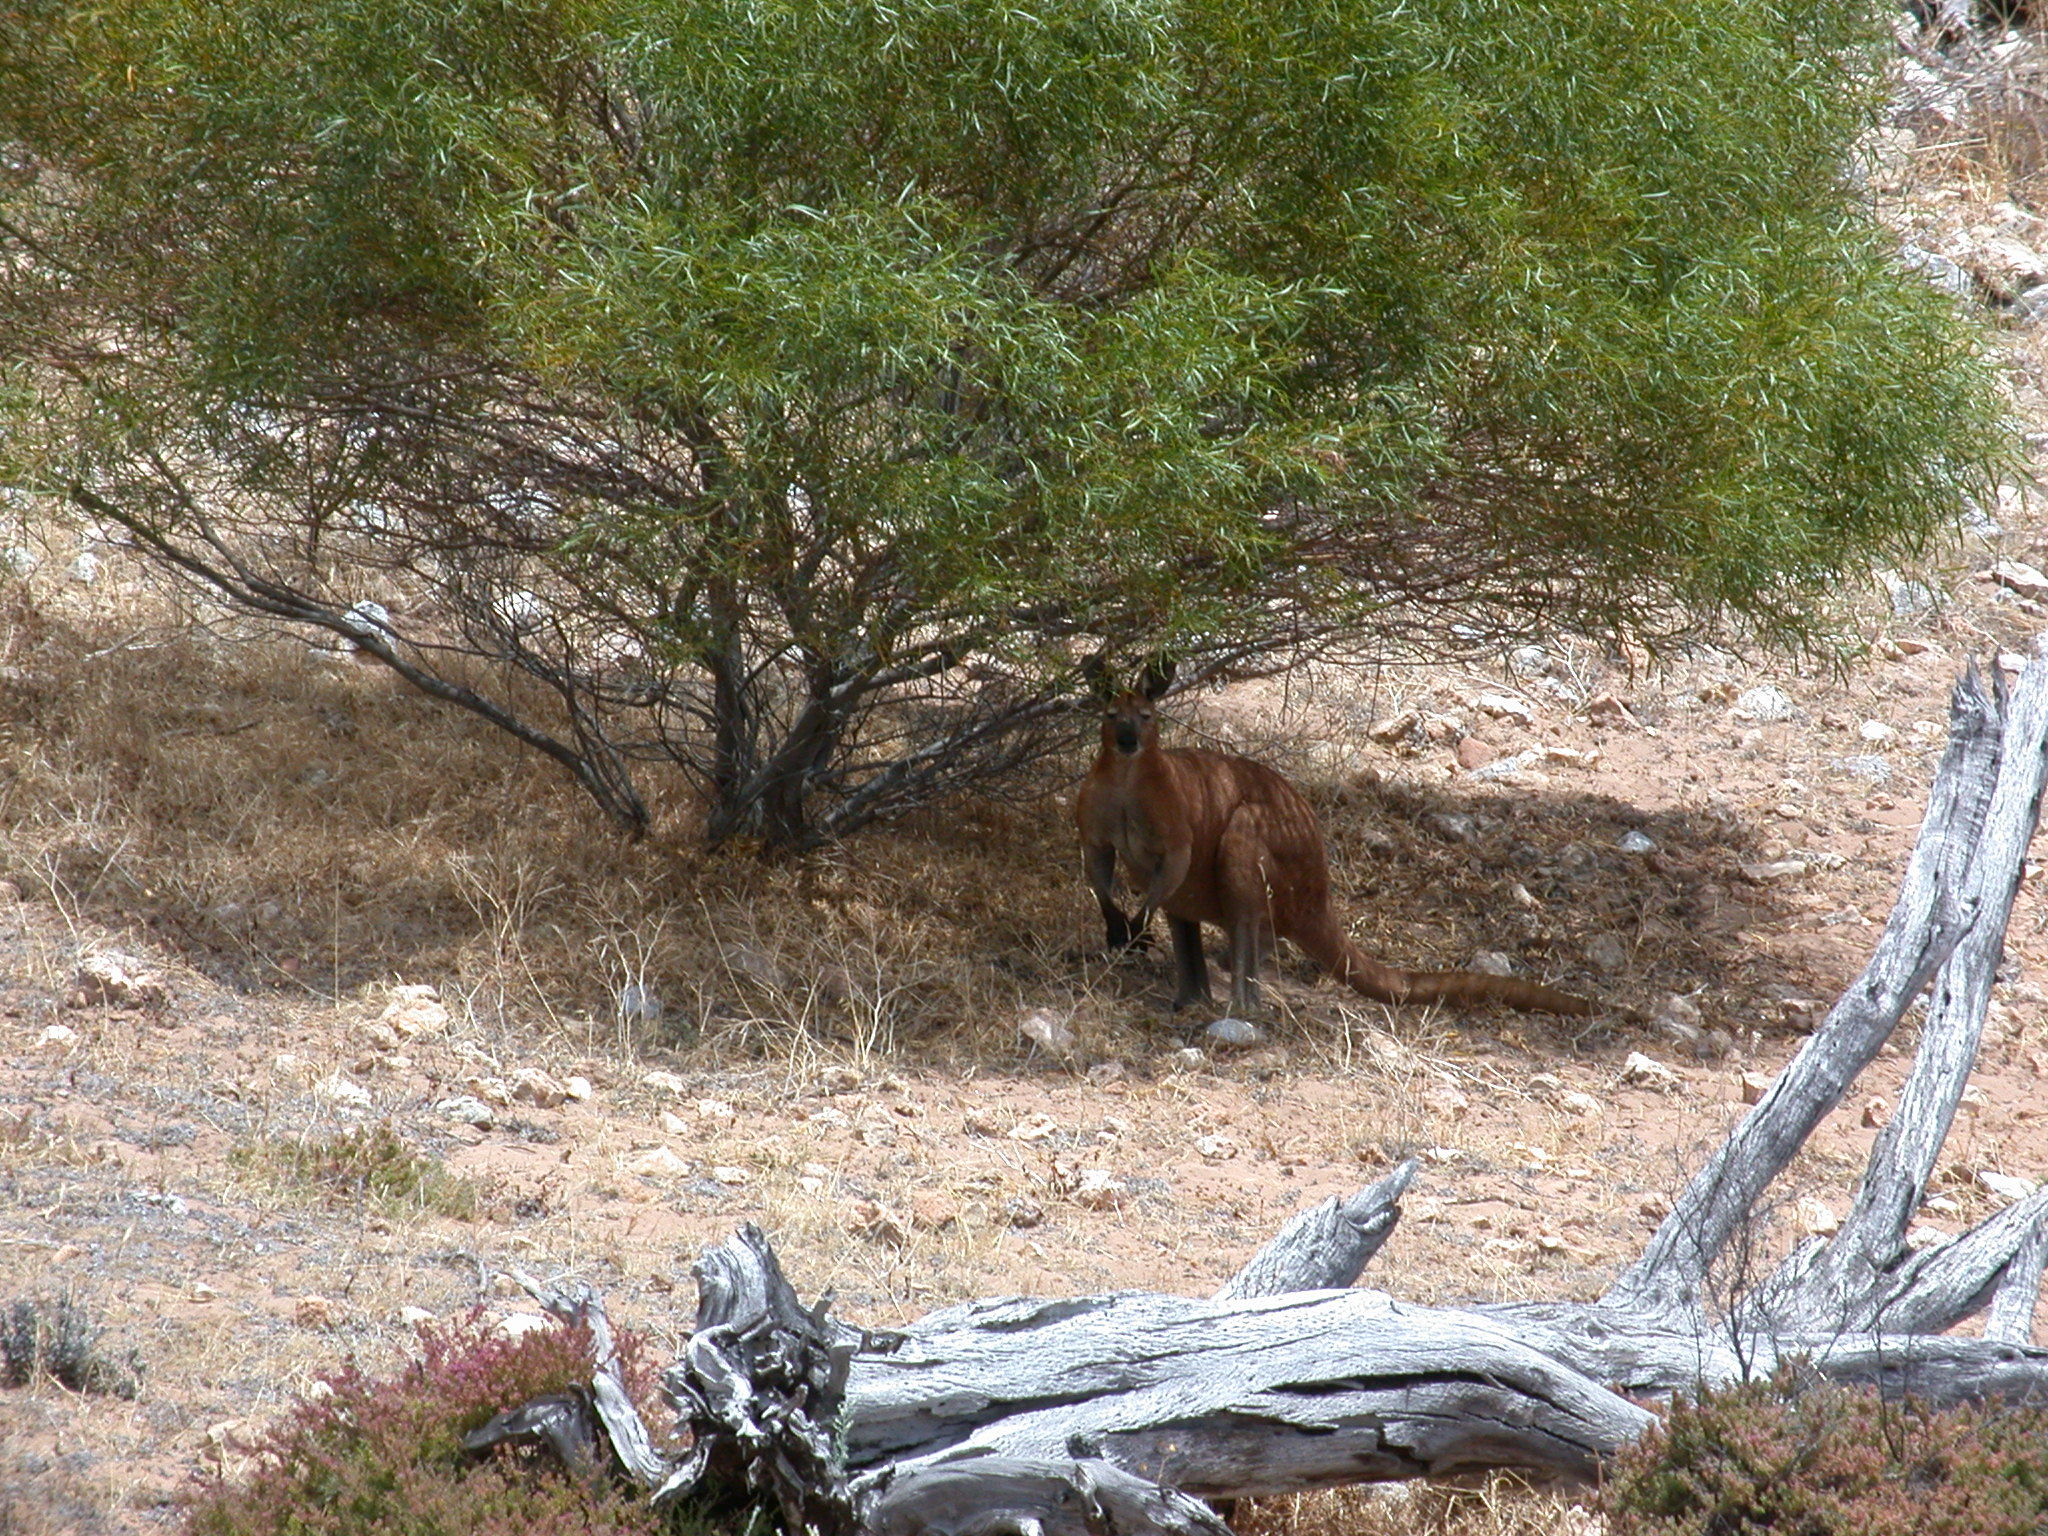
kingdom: Animalia
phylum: Chordata
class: Mammalia
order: Diprotodontia
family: Macropodidae
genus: Macropus
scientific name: Macropus robustus
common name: Eastern wallaroo
